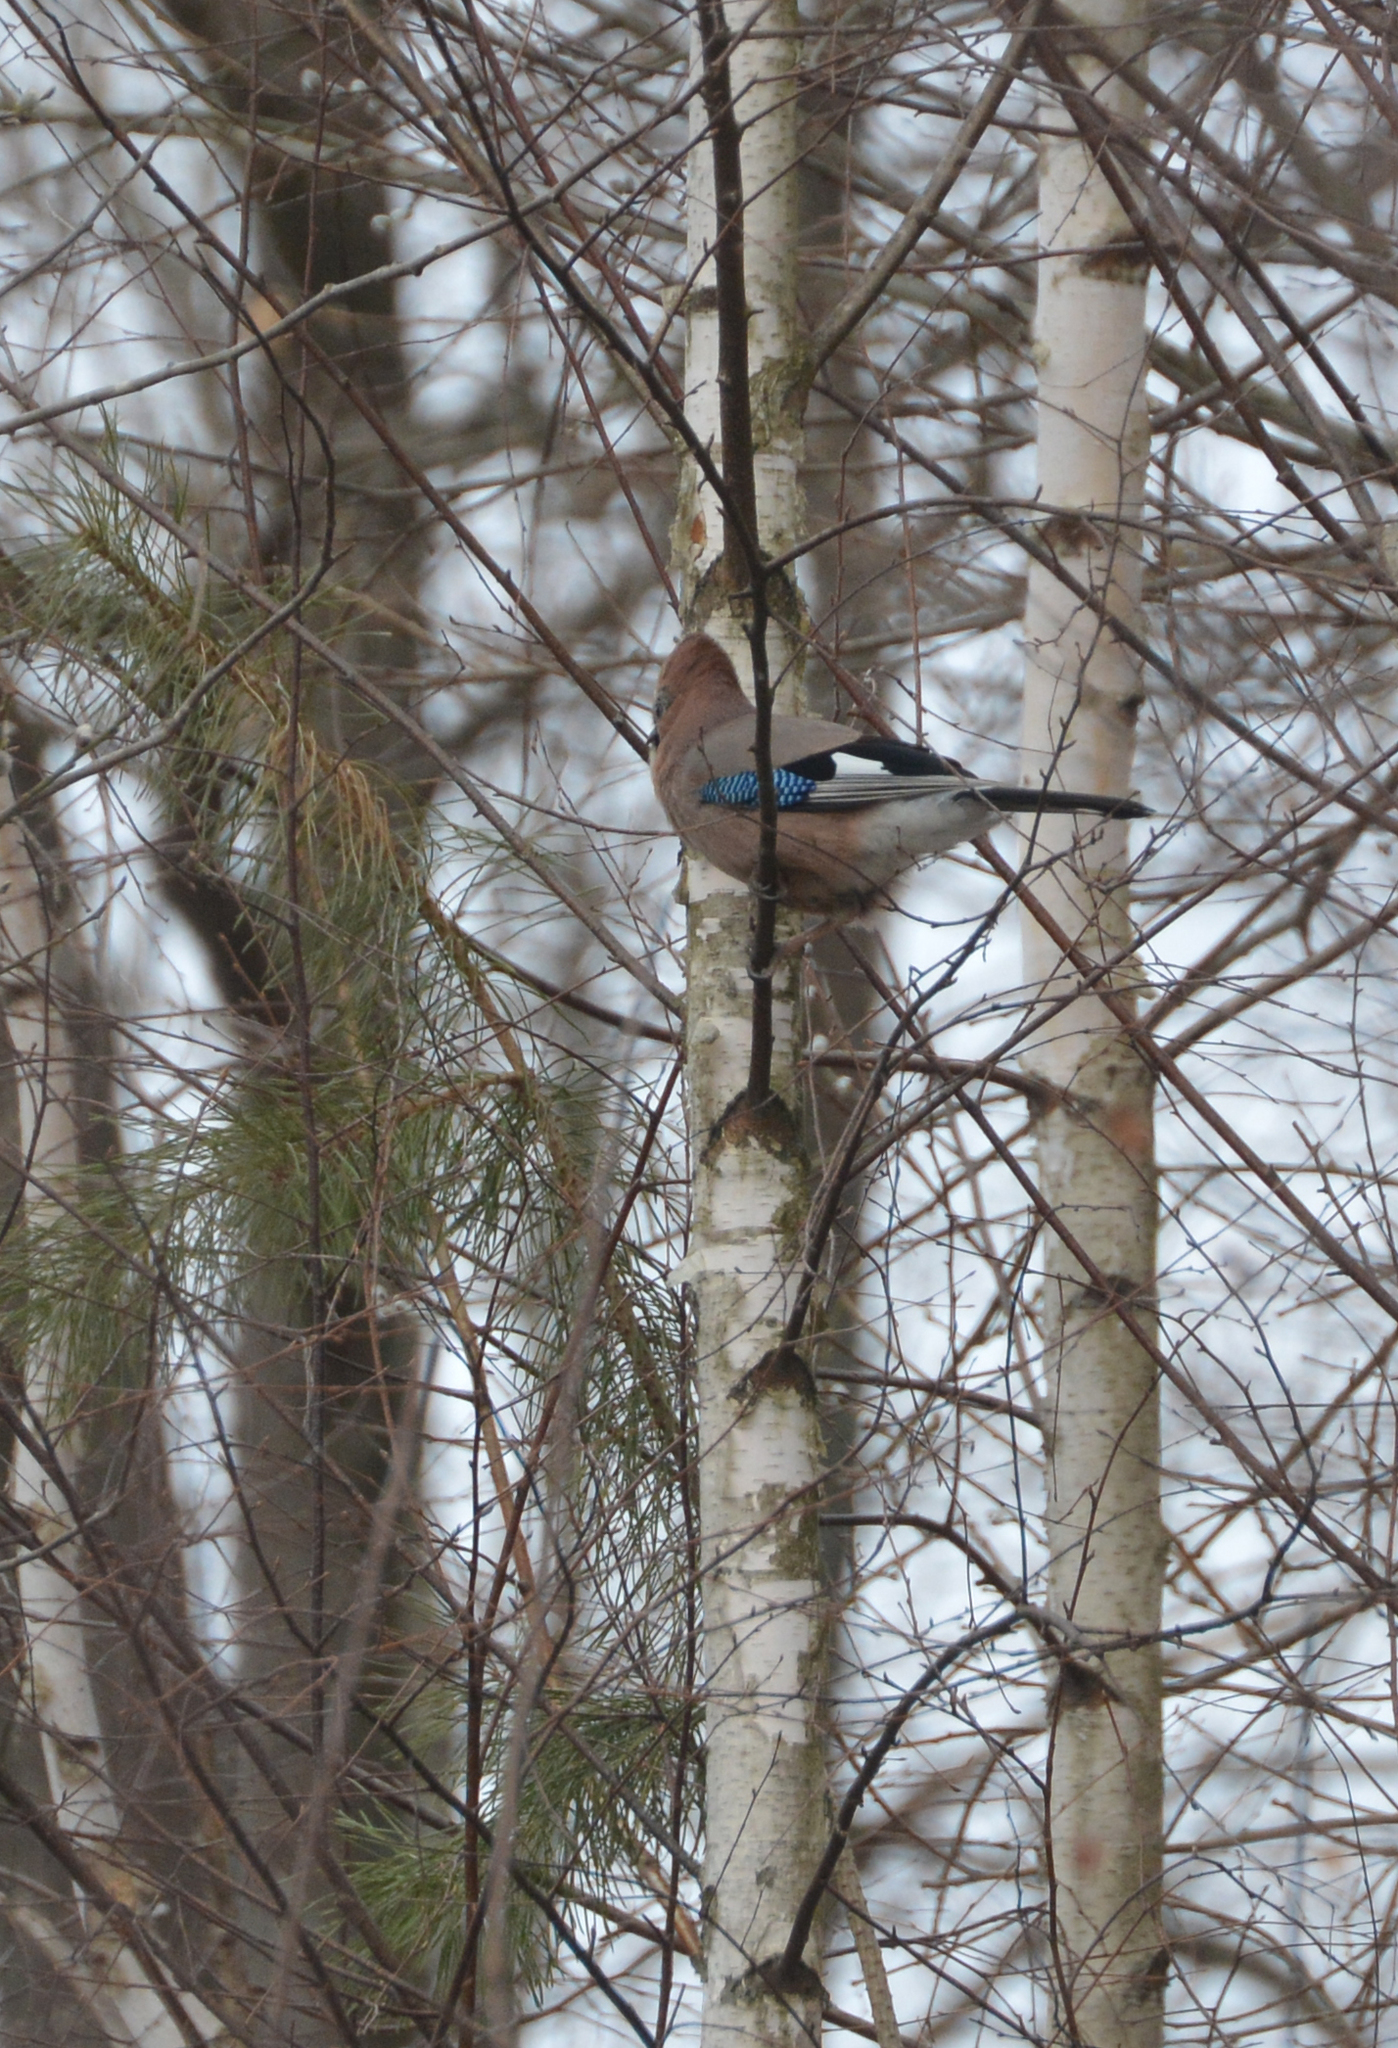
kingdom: Animalia
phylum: Chordata
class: Aves
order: Passeriformes
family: Corvidae
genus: Garrulus
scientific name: Garrulus glandarius
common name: Eurasian jay
